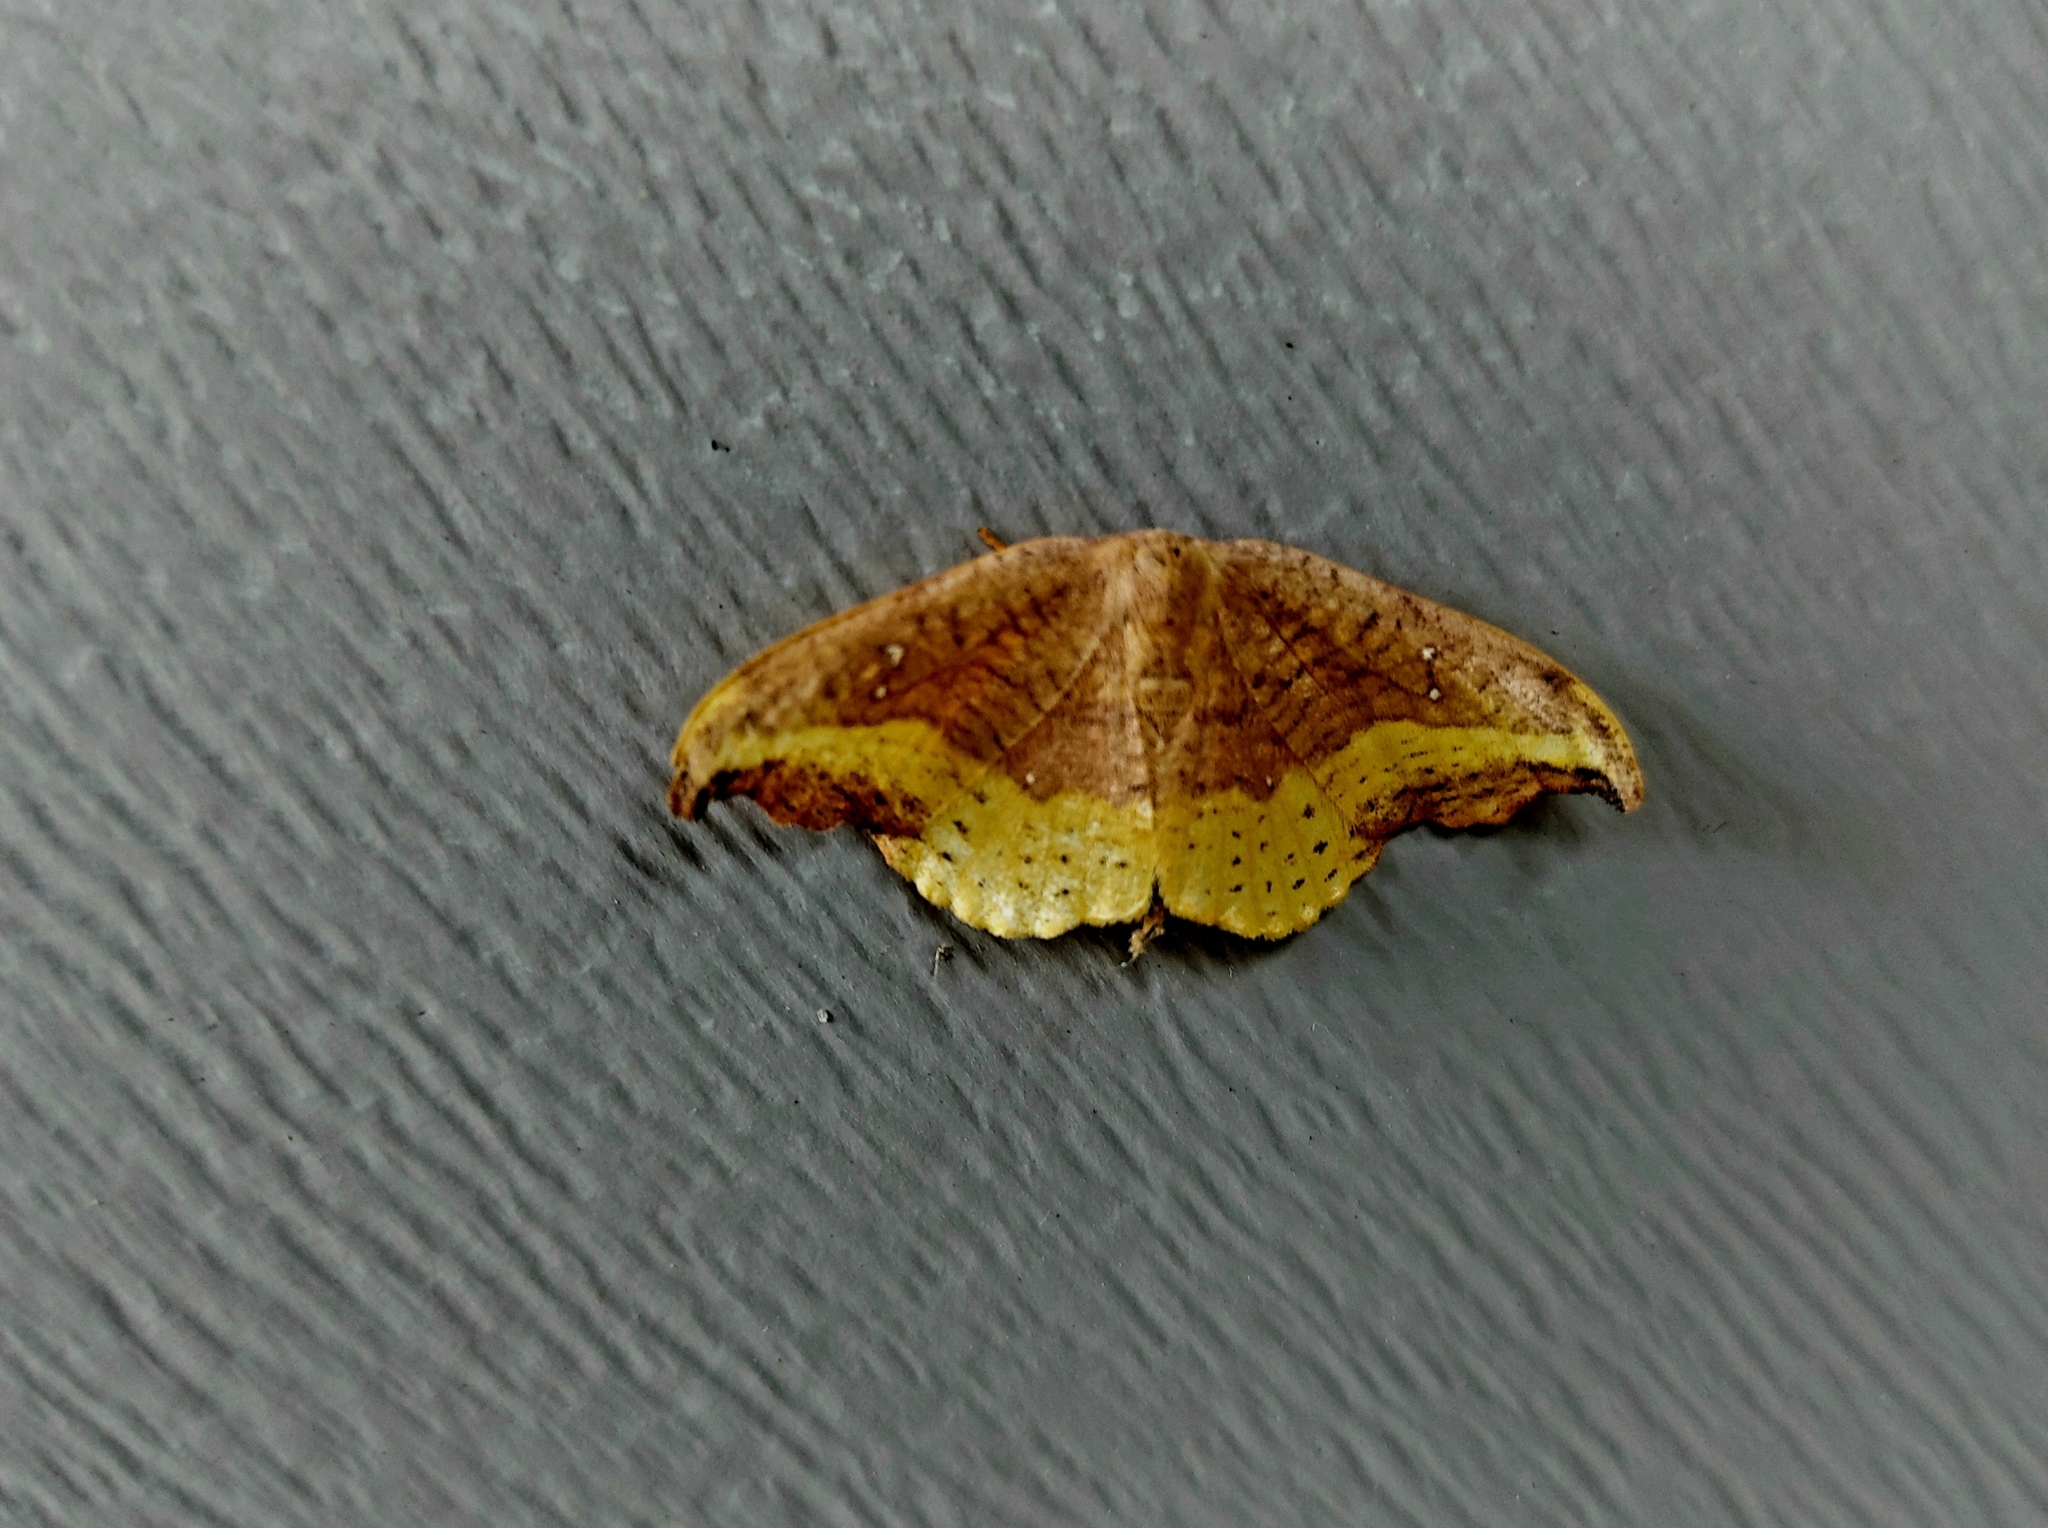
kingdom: Animalia
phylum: Arthropoda
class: Insecta
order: Lepidoptera
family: Drepanidae
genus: Oreta
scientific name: Oreta rosea
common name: Rose hooktip
